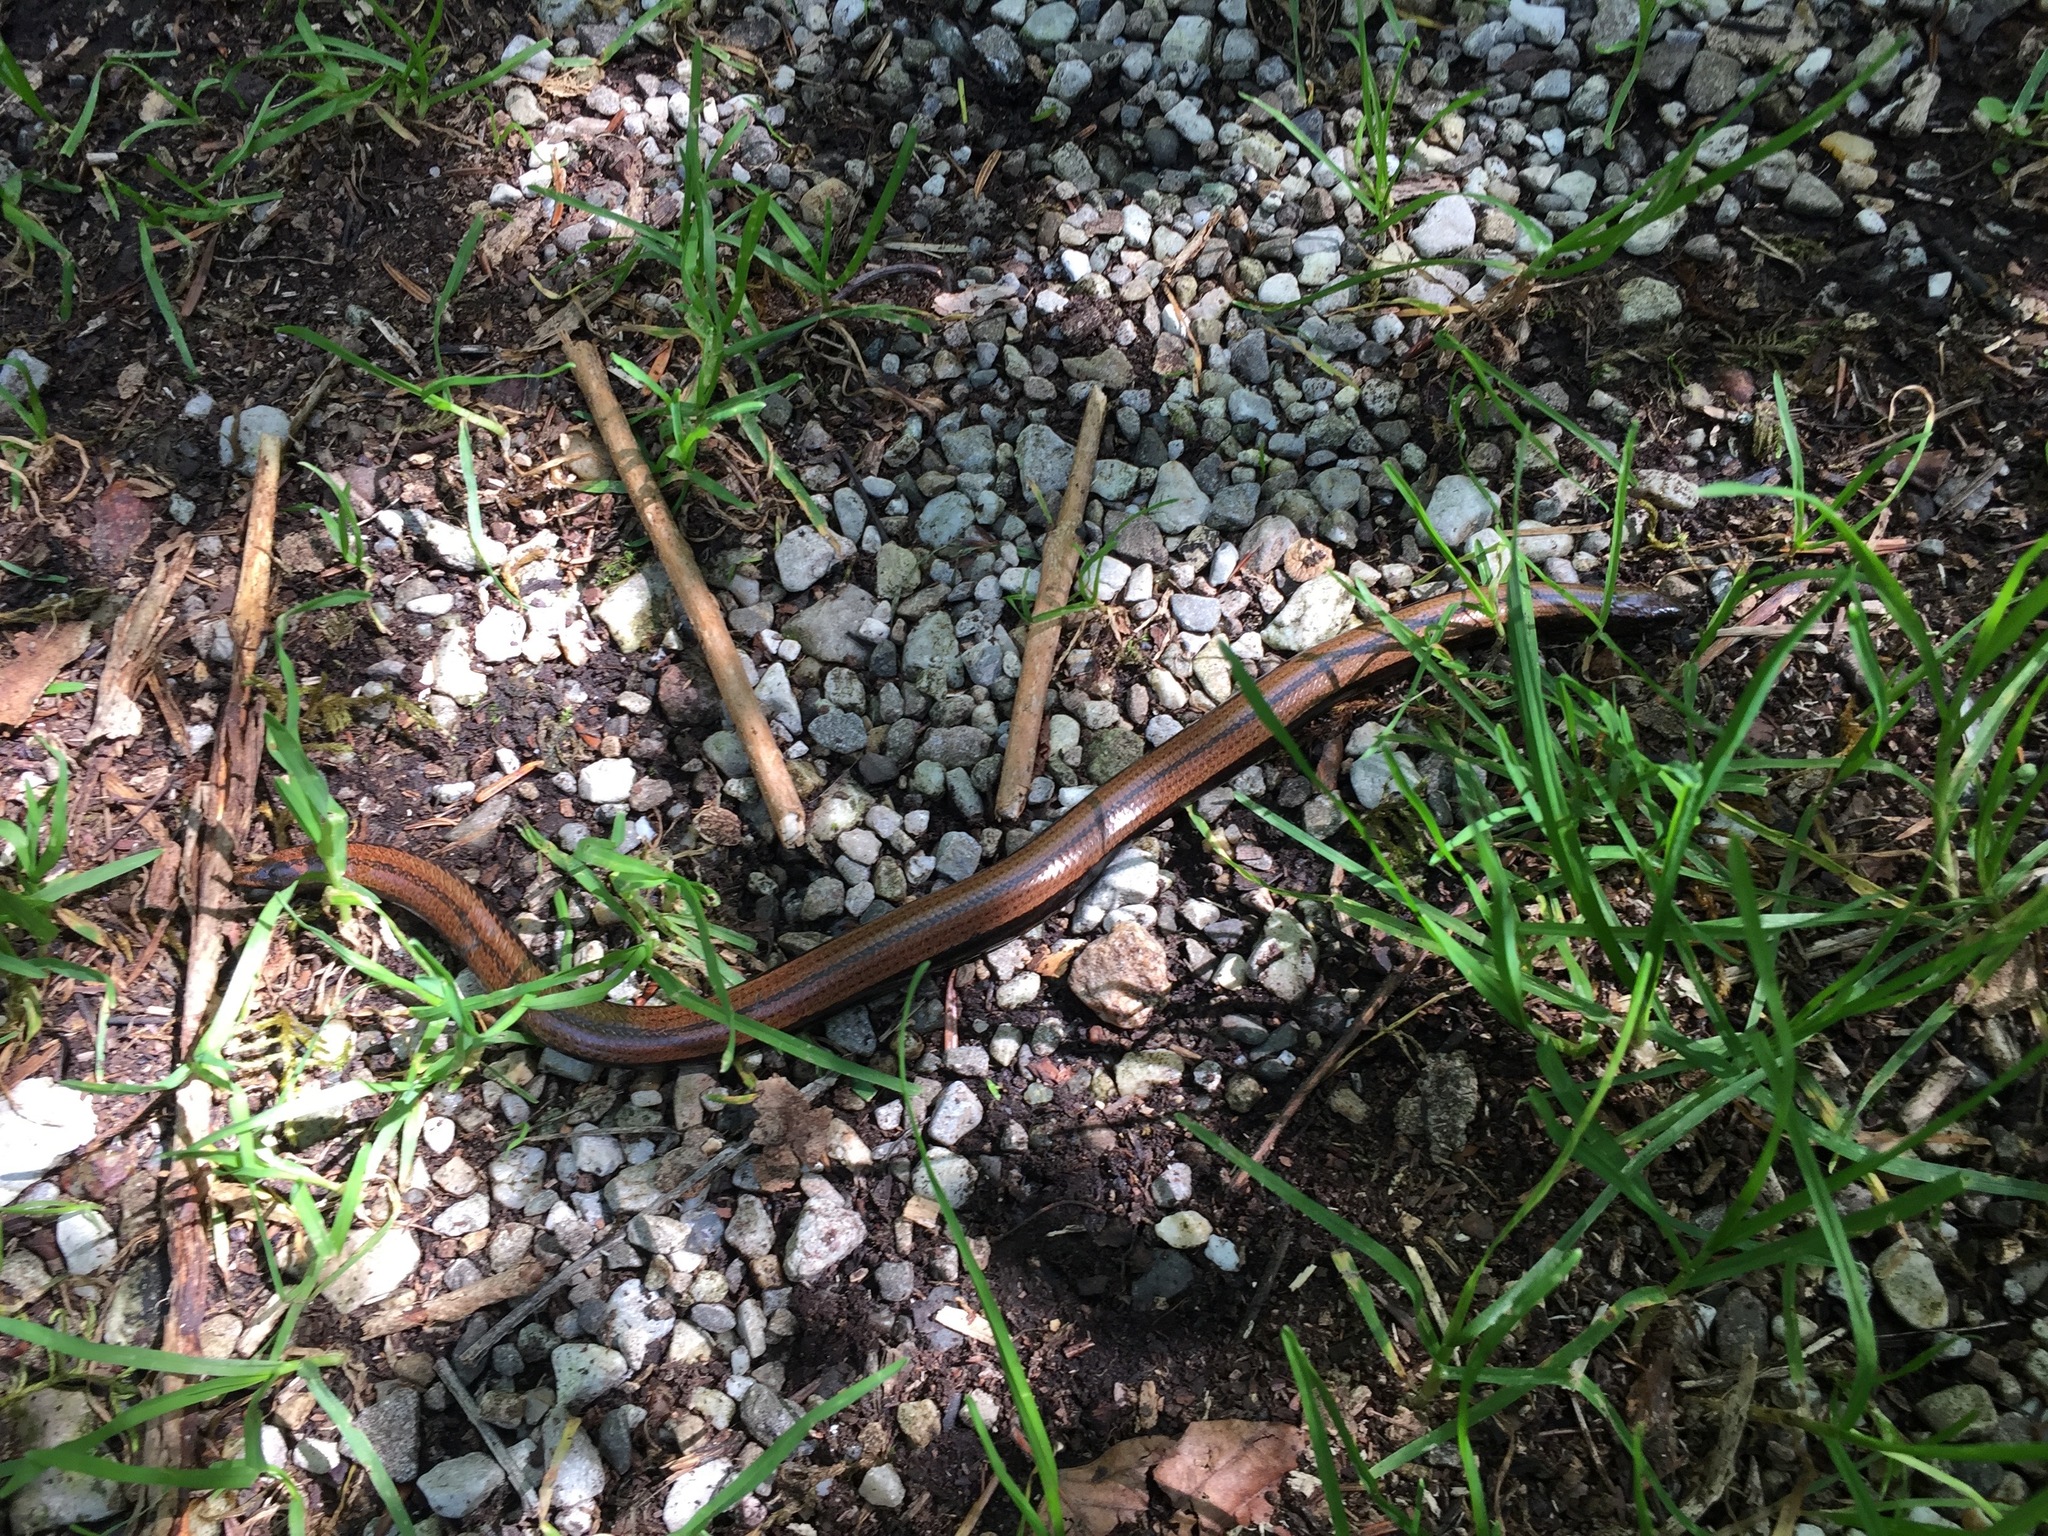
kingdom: Animalia
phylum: Chordata
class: Squamata
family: Anguidae
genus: Anguis
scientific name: Anguis fragilis
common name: Slow worm
